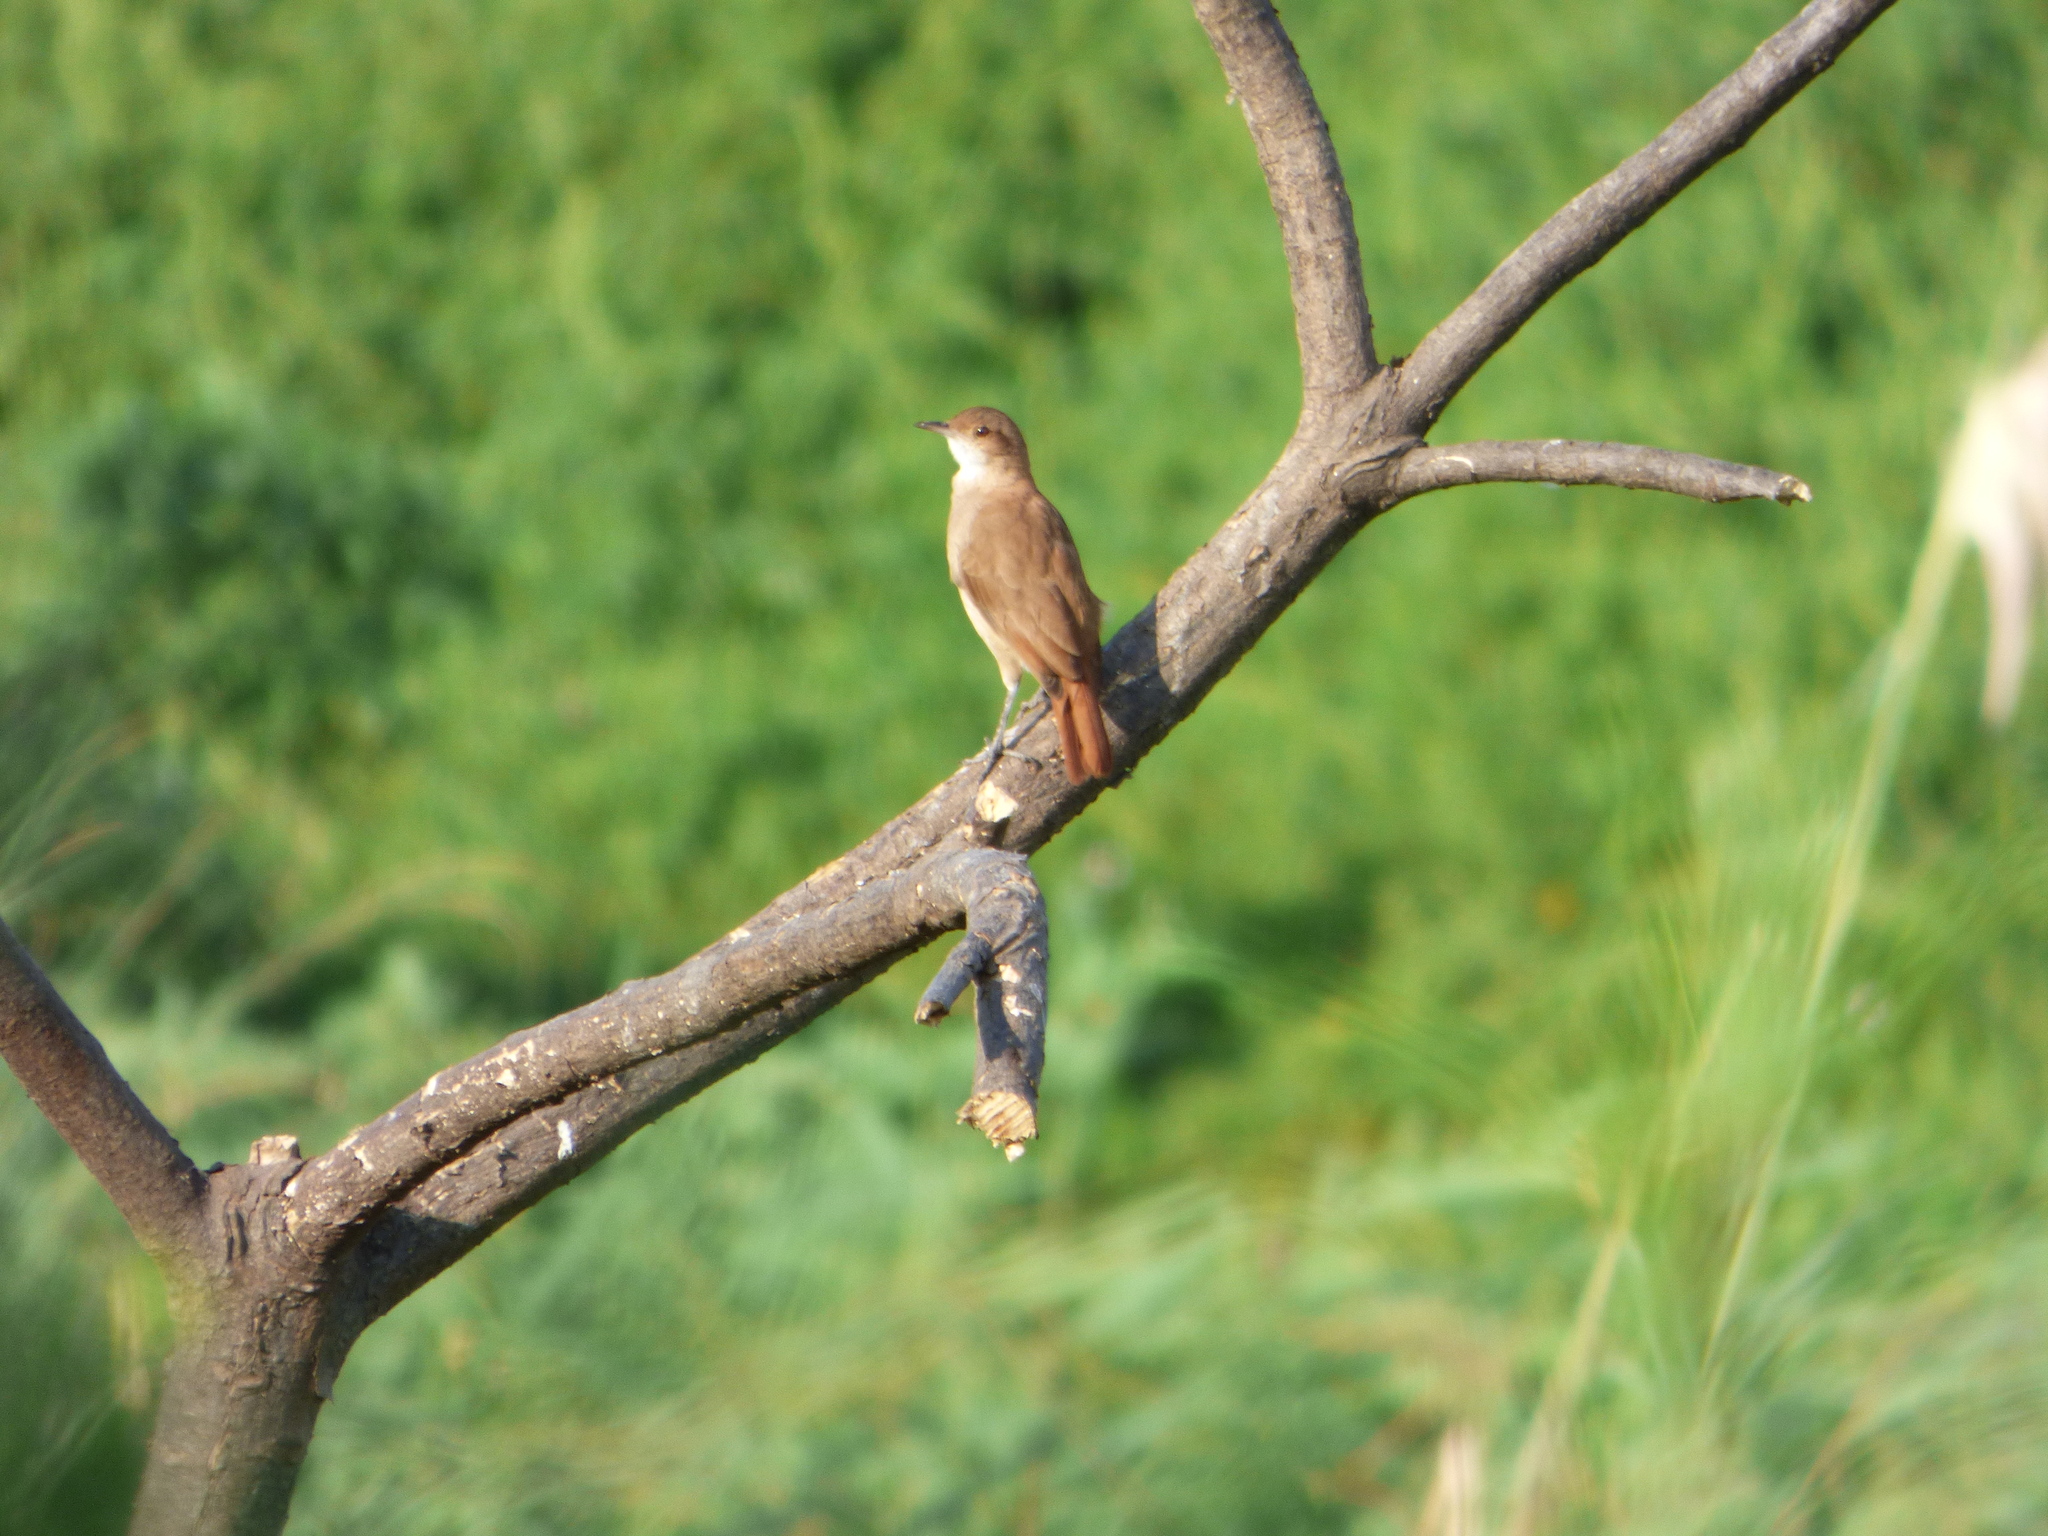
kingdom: Animalia
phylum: Chordata
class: Aves
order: Passeriformes
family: Furnariidae
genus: Furnarius
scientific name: Furnarius rufus
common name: Rufous hornero
